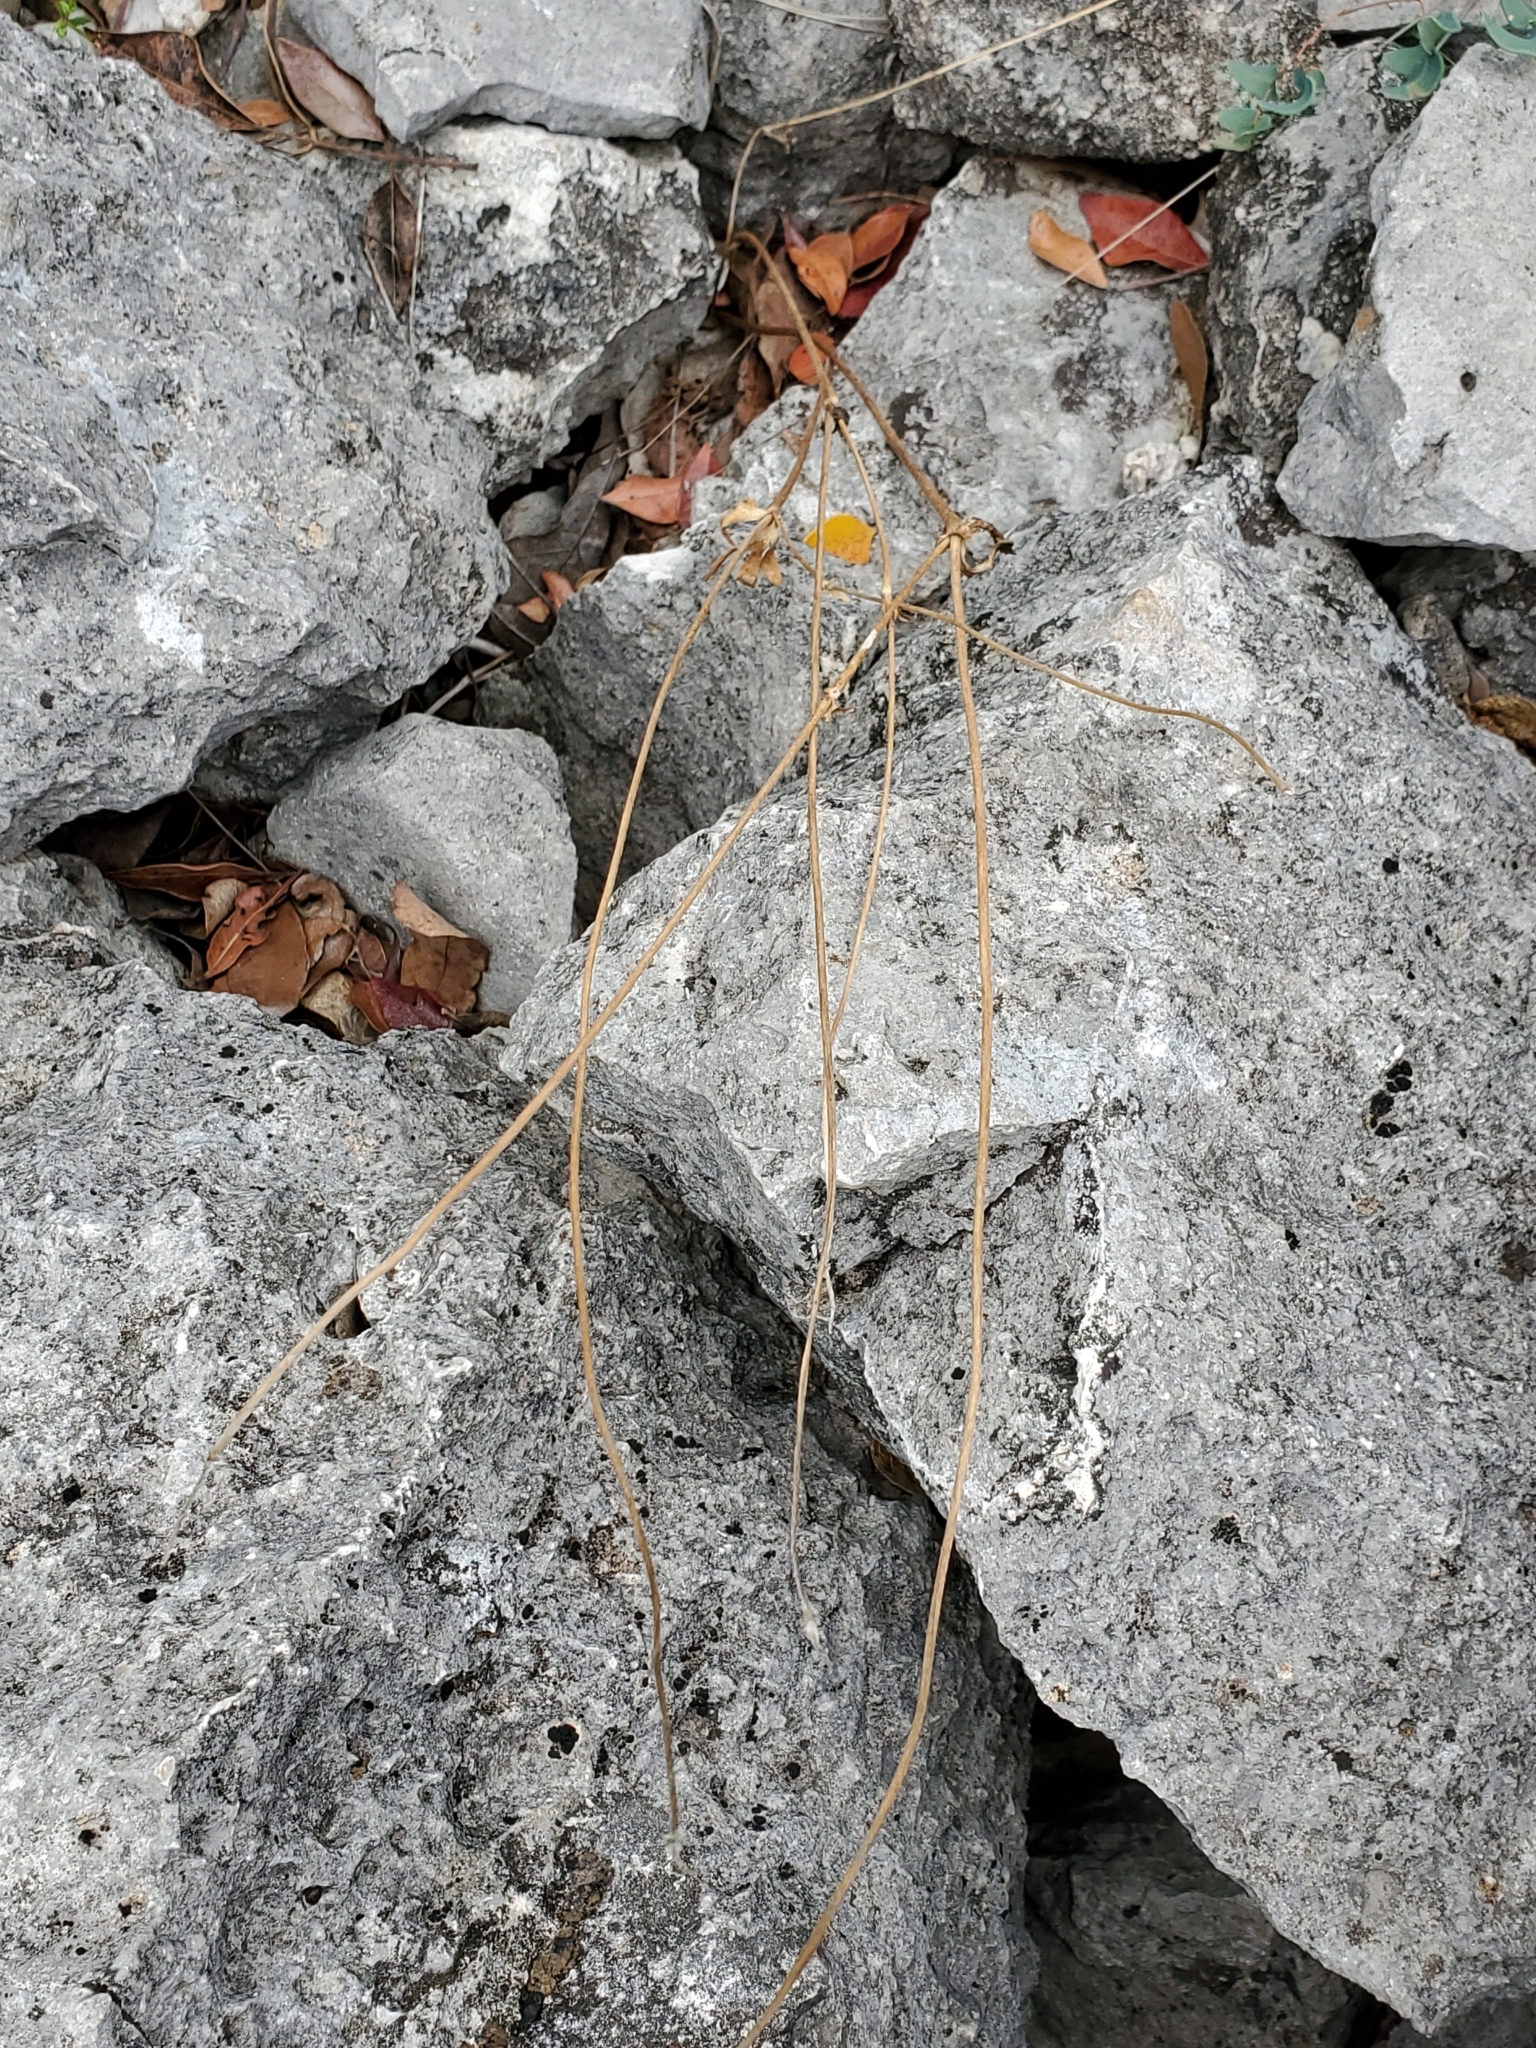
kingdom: Plantae
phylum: Tracheophyta
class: Magnoliopsida
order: Ranunculales
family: Ranunculaceae
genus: Anemone
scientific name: Anemone edwardsiana
